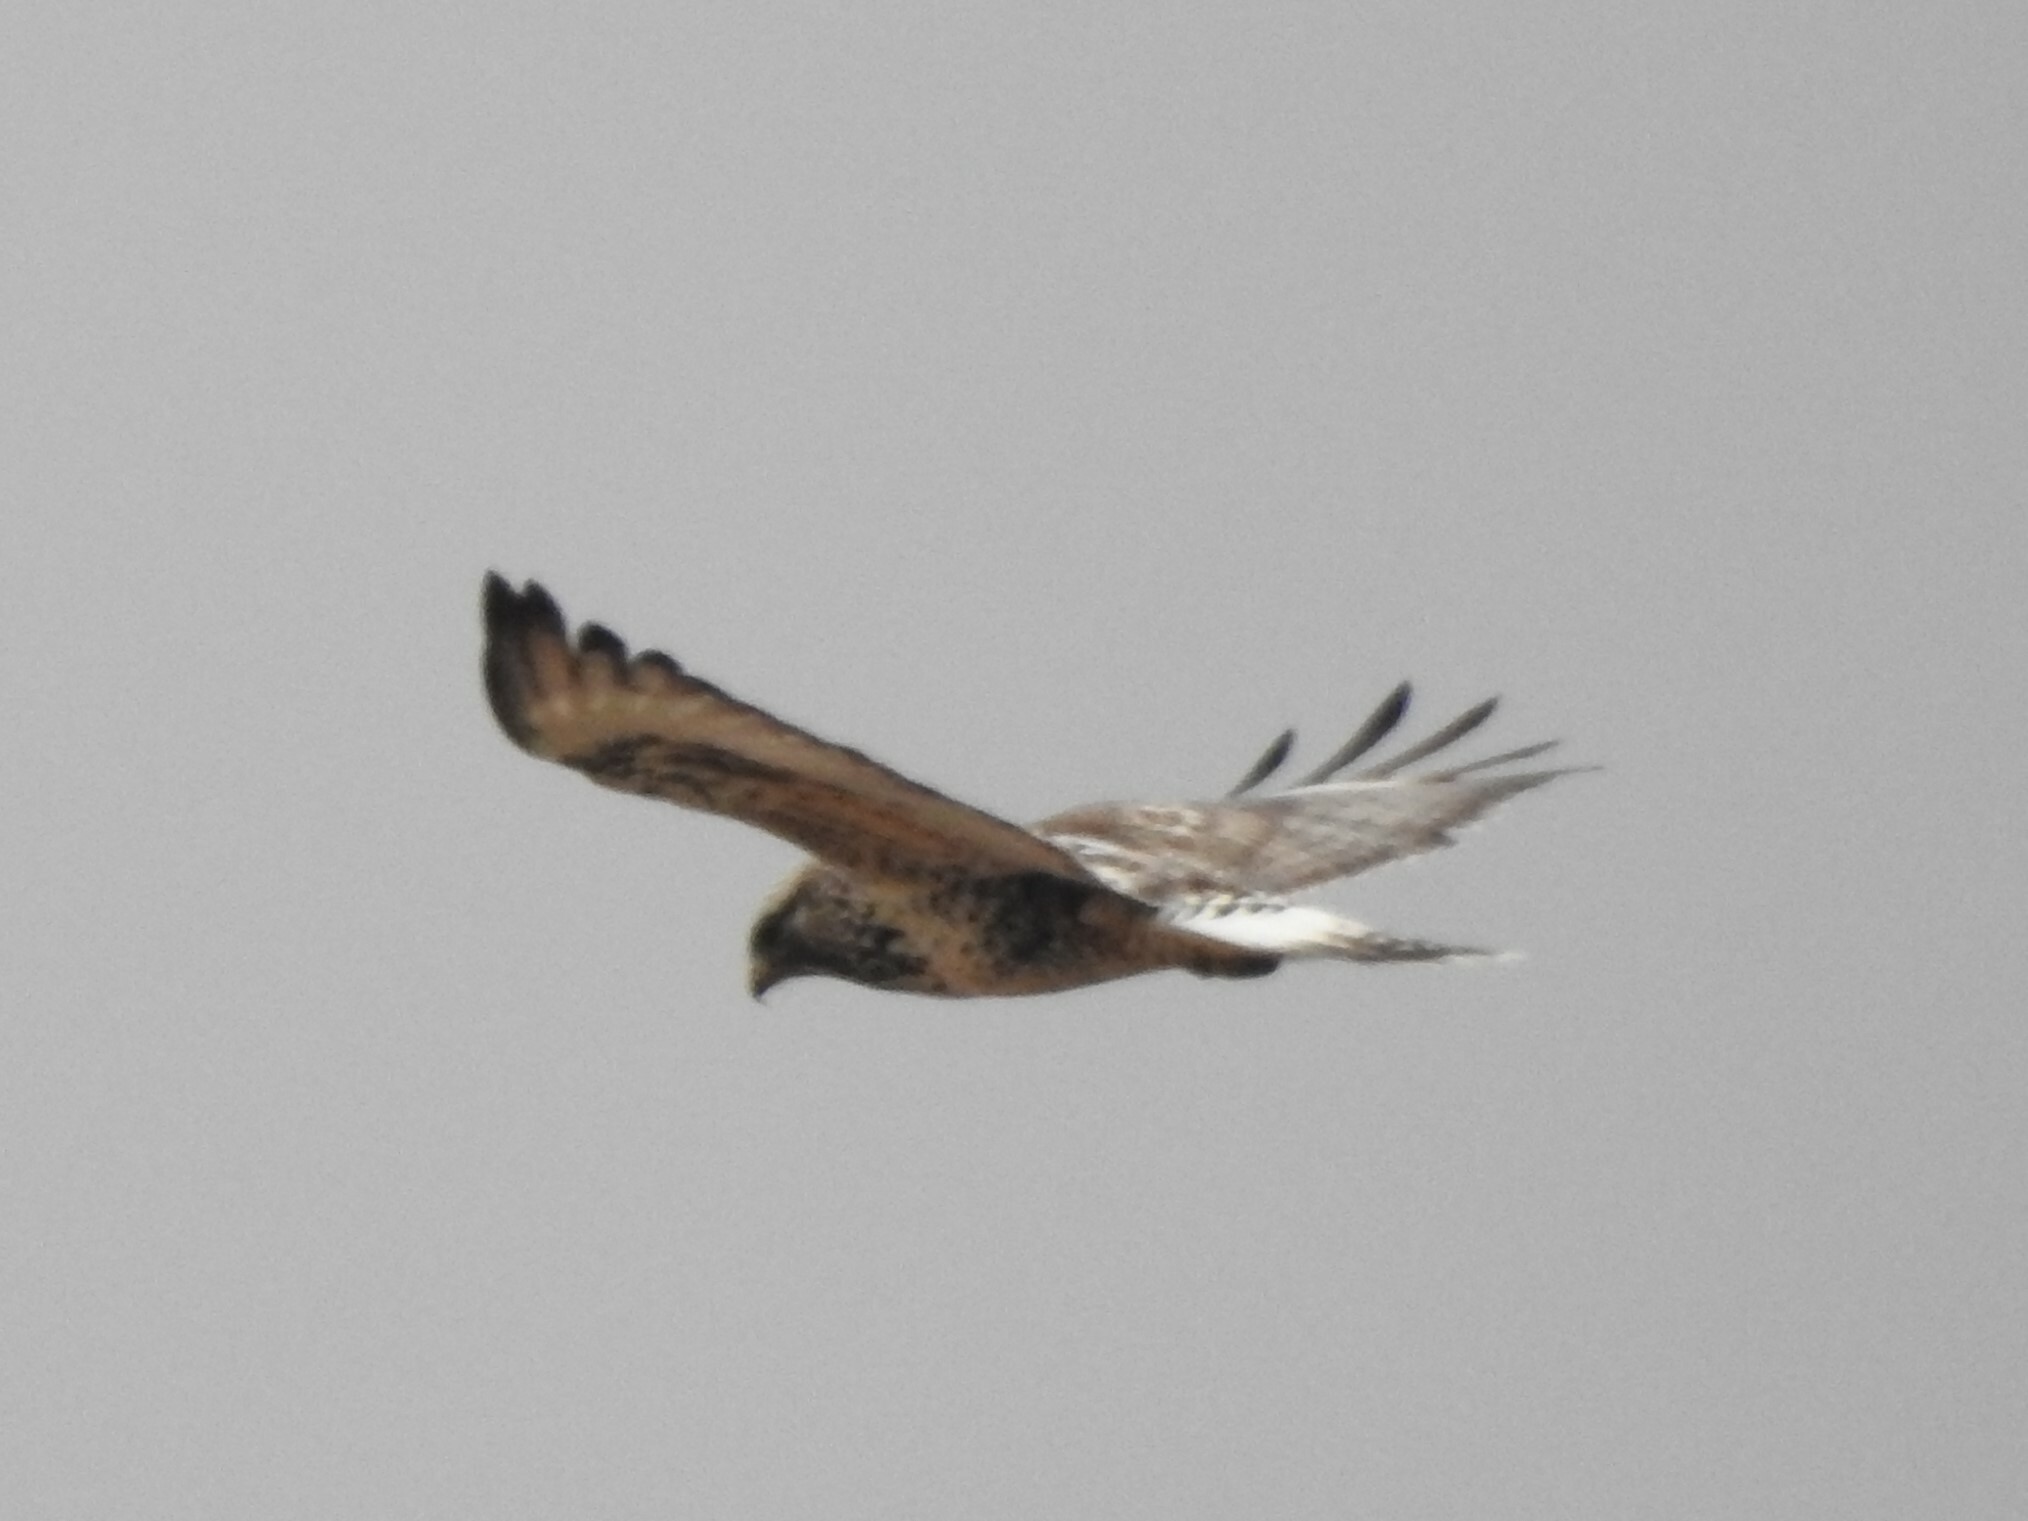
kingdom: Animalia
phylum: Chordata
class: Aves
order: Accipitriformes
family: Accipitridae
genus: Buteo
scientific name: Buteo lagopus
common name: Rough-legged buzzard
